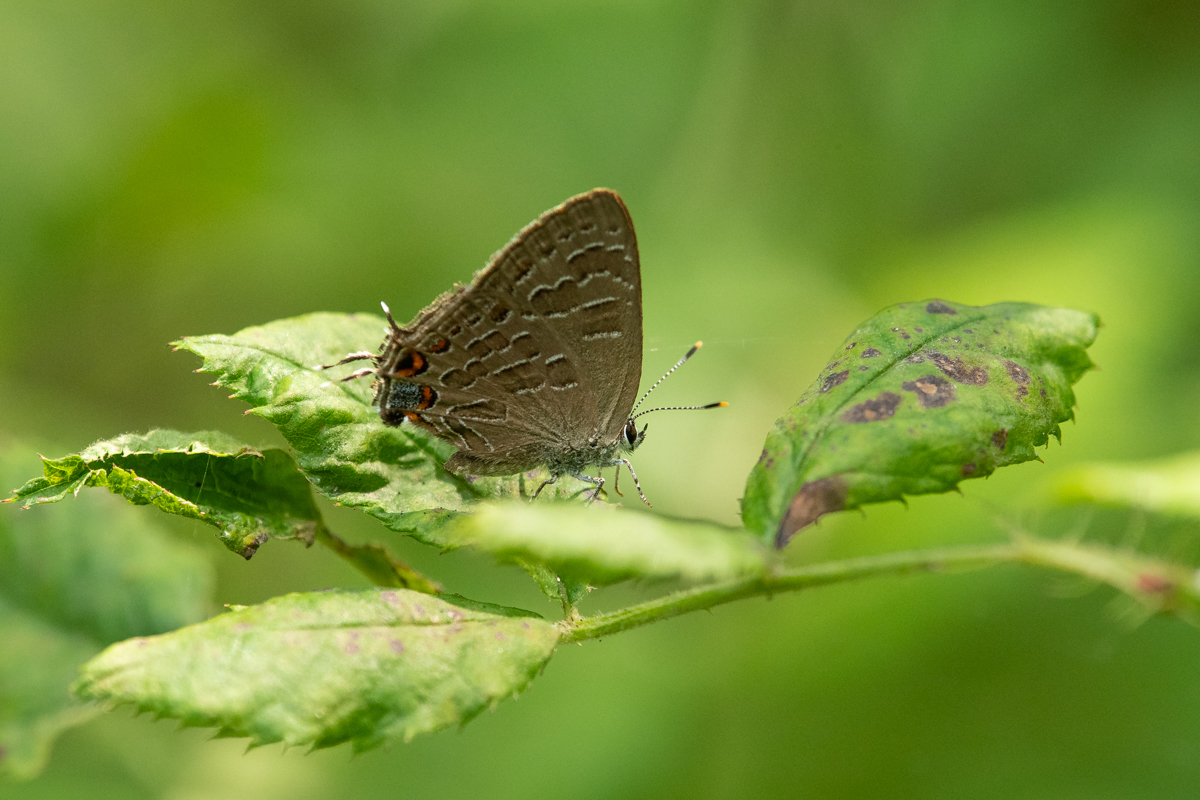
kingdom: Animalia
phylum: Arthropoda
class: Insecta
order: Lepidoptera
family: Lycaenidae
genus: Satyrium
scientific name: Satyrium liparops
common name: Striped hairstreak
